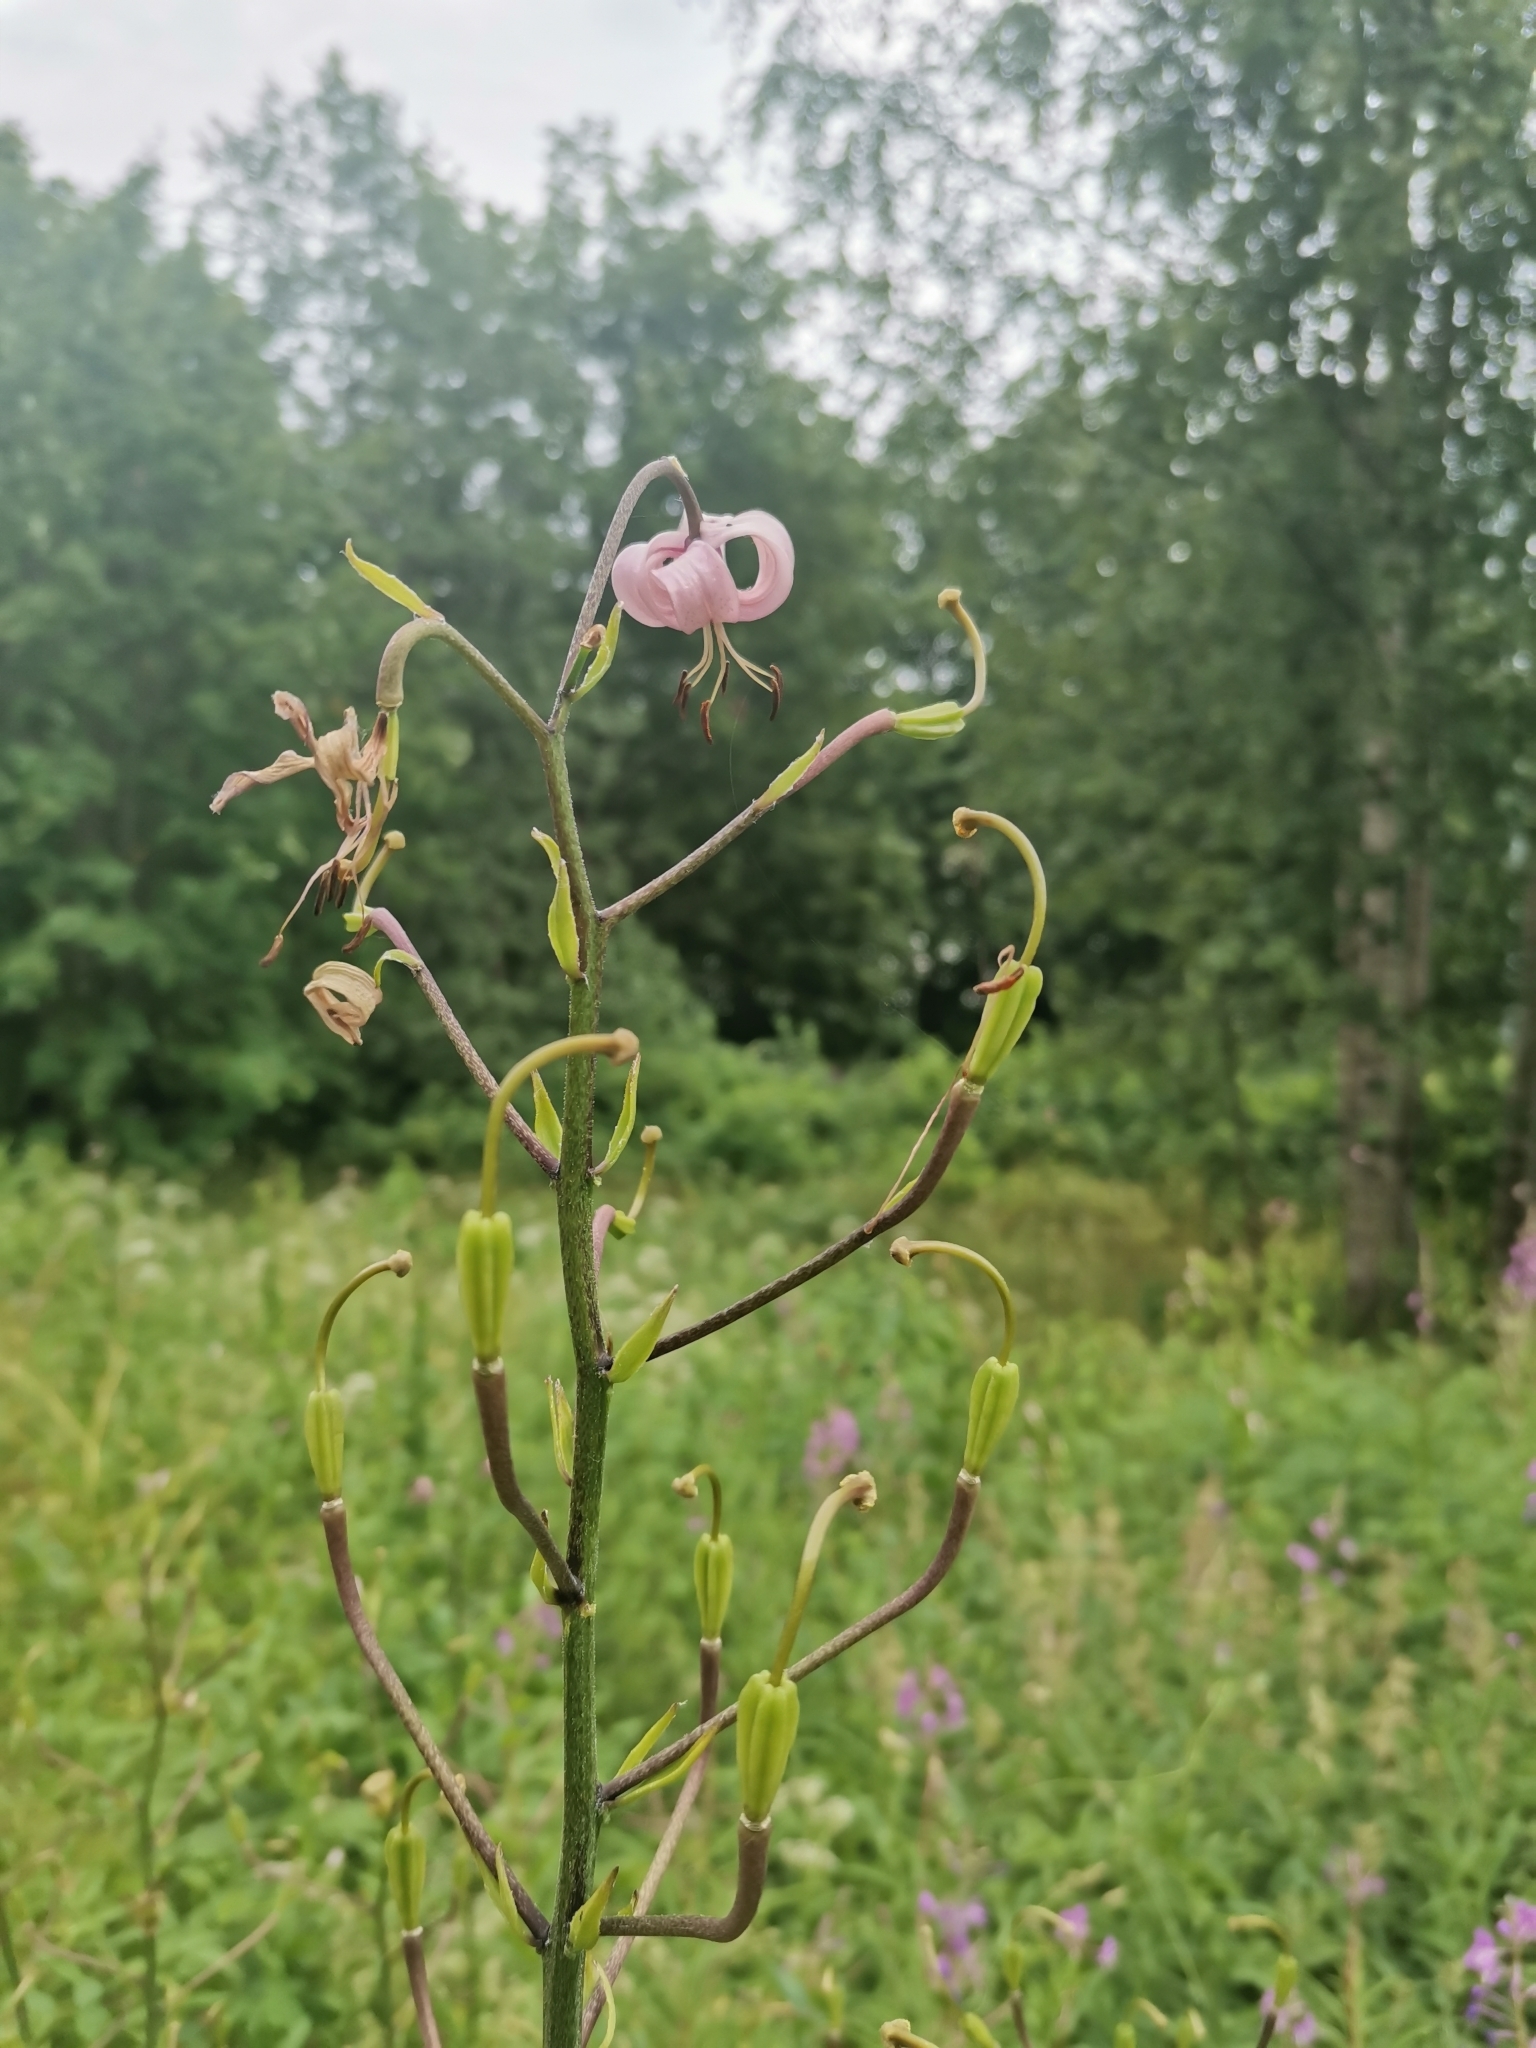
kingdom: Plantae
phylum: Tracheophyta
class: Liliopsida
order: Liliales
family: Liliaceae
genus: Lilium
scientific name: Lilium martagon
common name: Martagon lily
